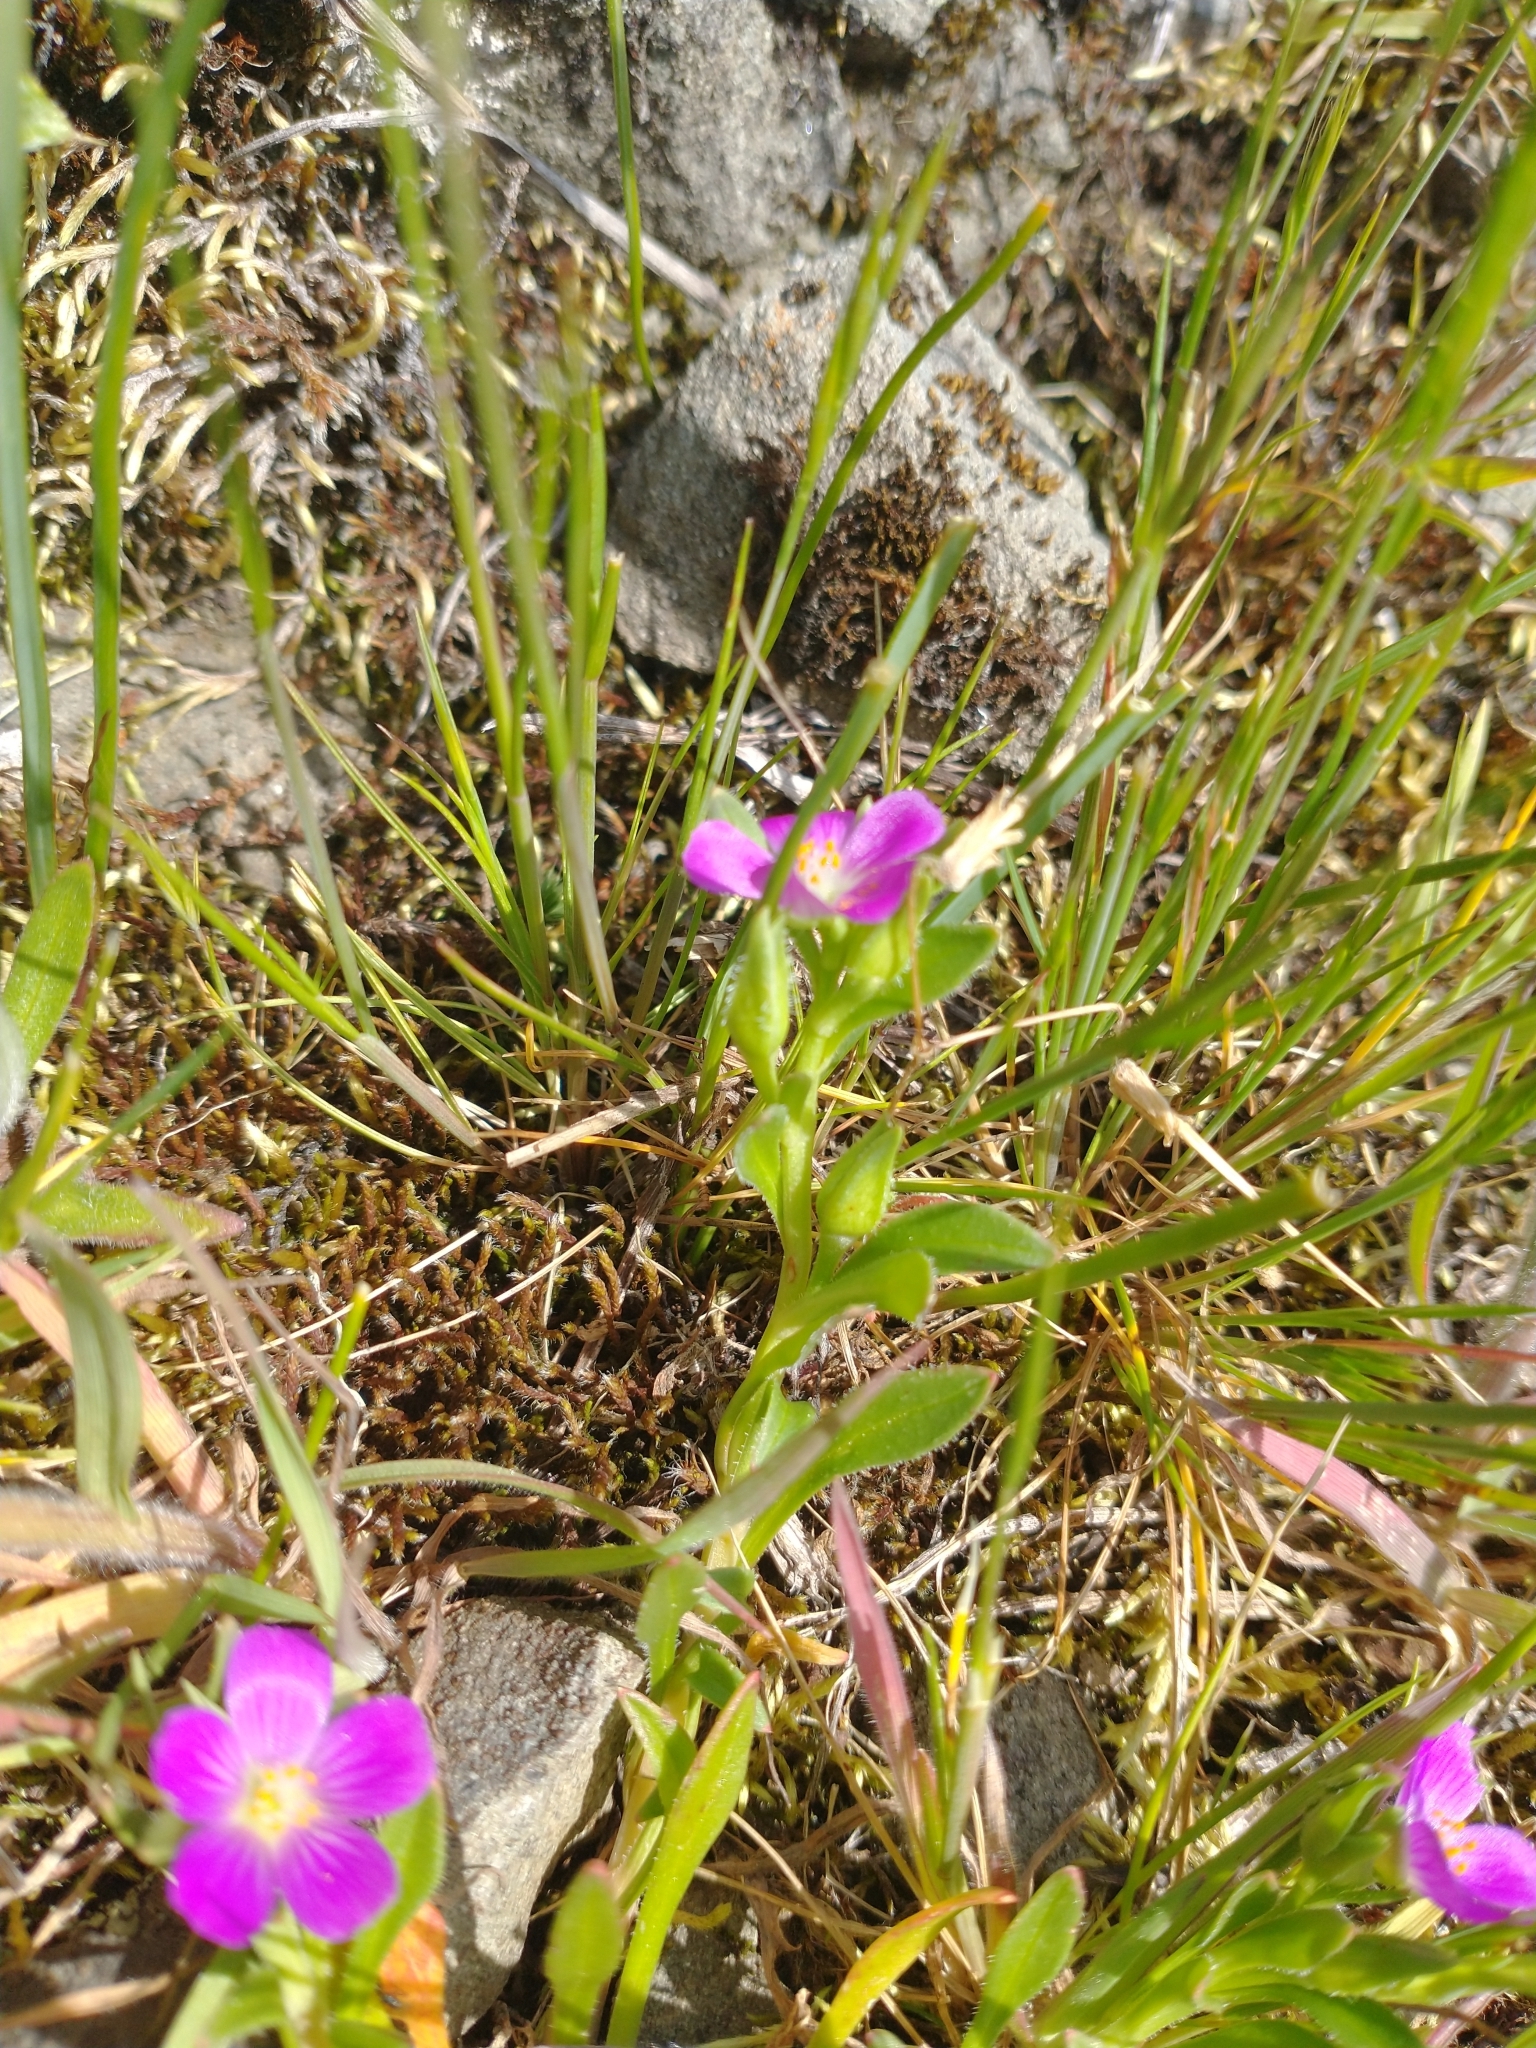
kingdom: Plantae
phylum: Tracheophyta
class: Magnoliopsida
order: Caryophyllales
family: Montiaceae
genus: Calandrinia
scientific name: Calandrinia menziesii
